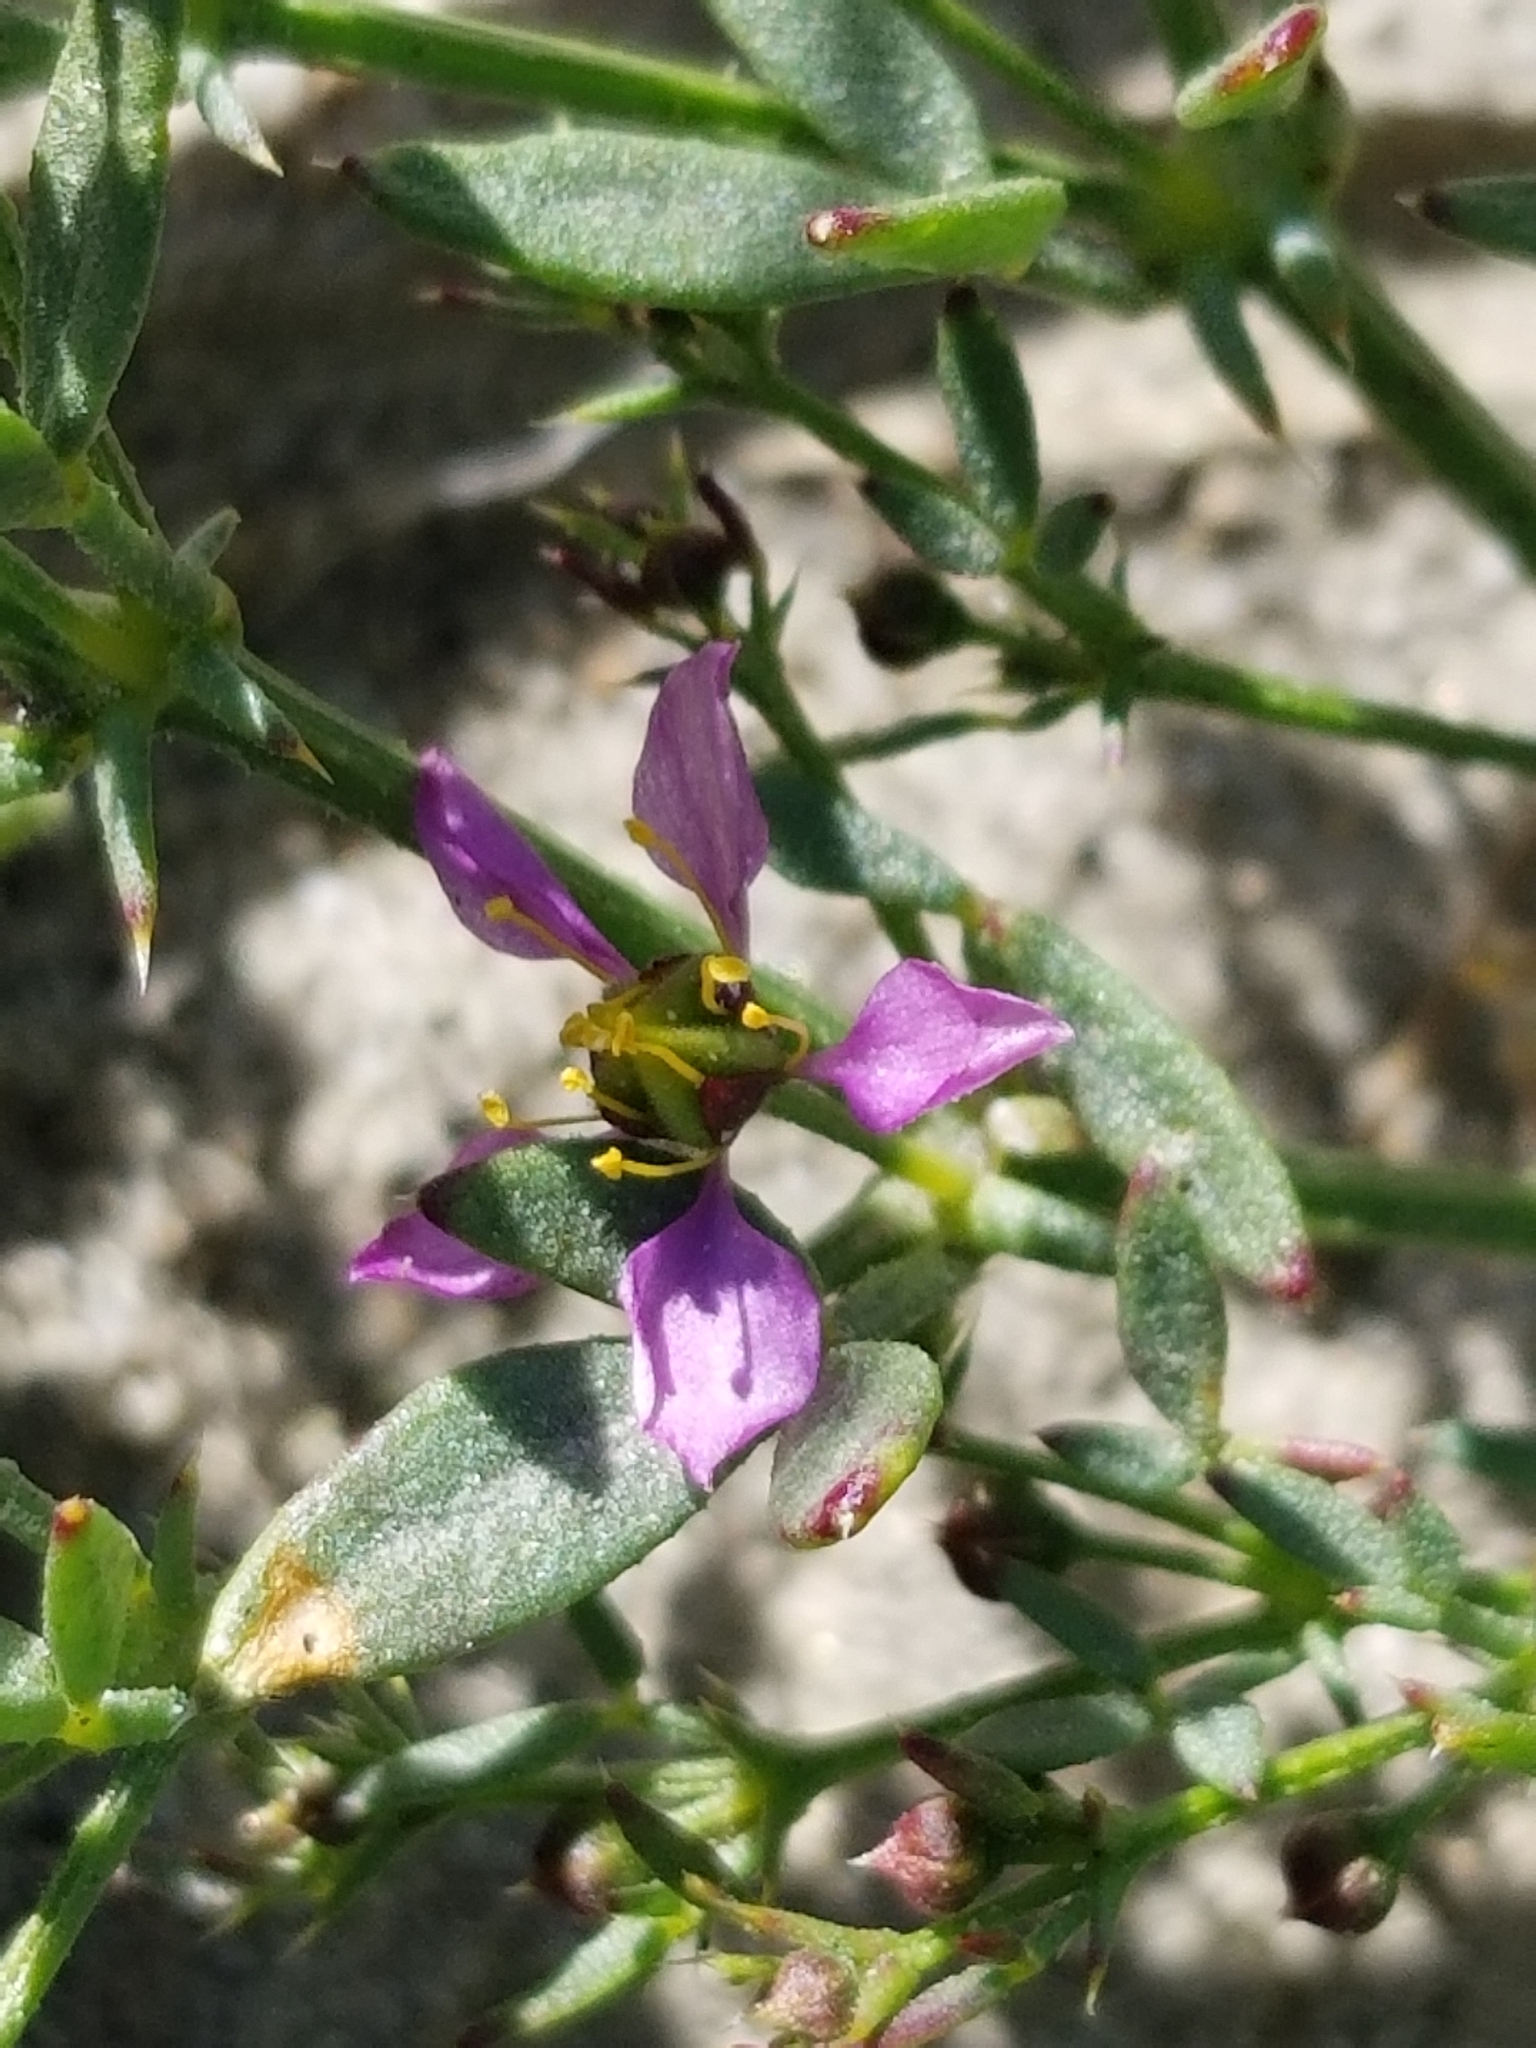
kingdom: Plantae
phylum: Tracheophyta
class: Magnoliopsida
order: Zygophyllales
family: Zygophyllaceae
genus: Fagonia
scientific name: Fagonia laevis
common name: California fagonbush
